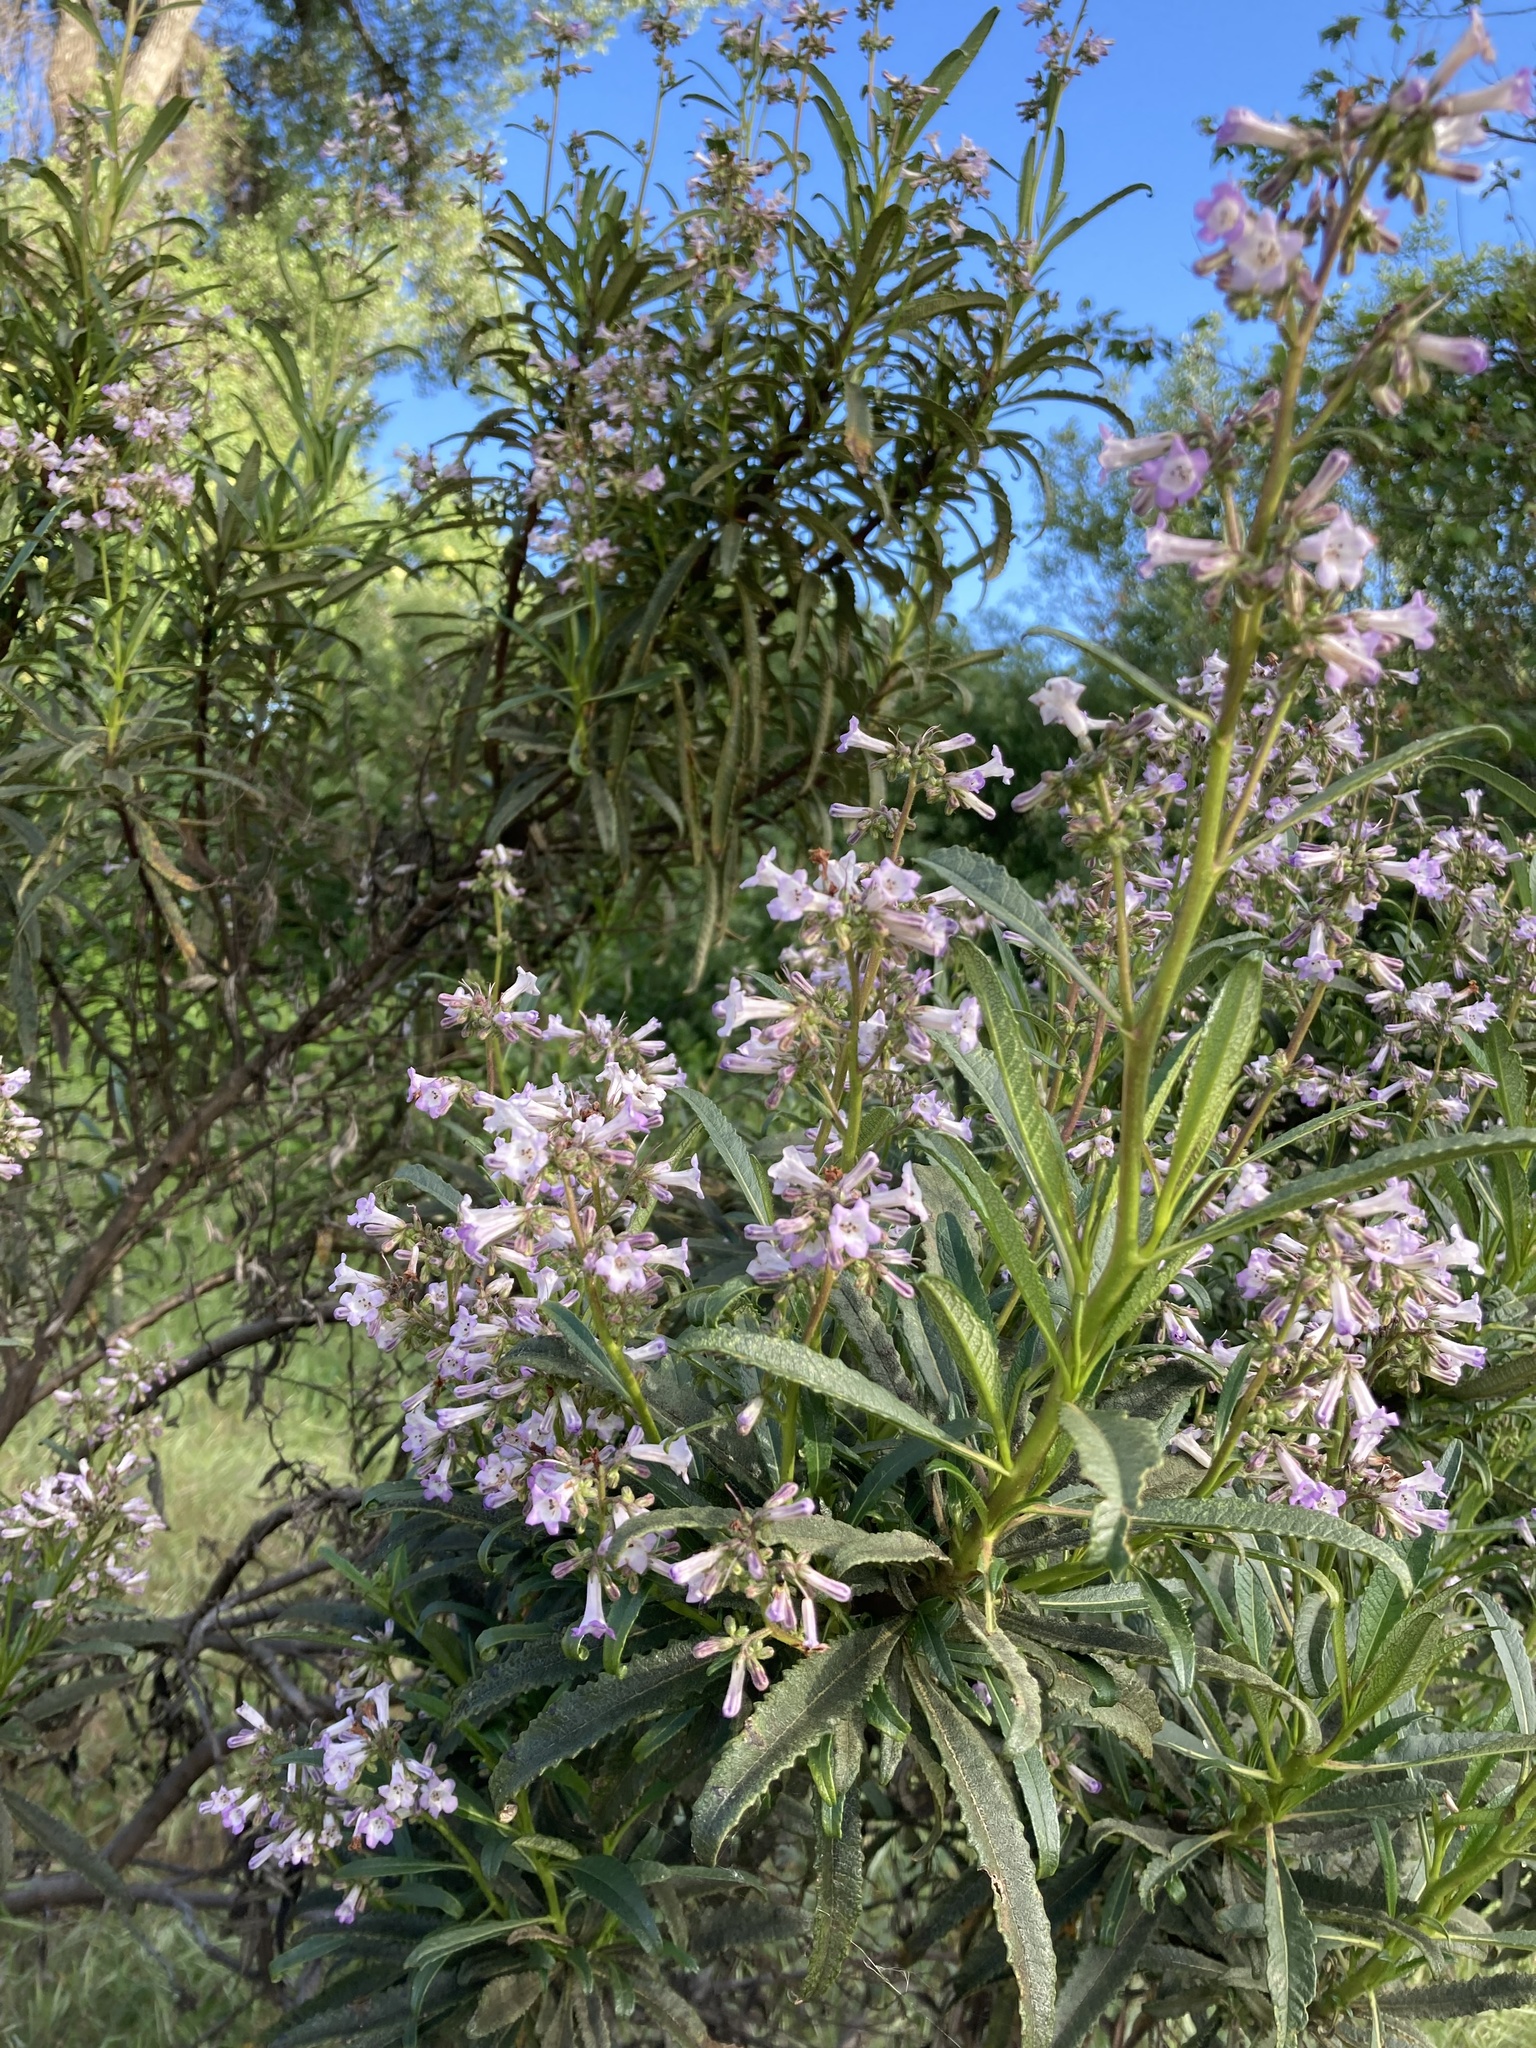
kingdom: Plantae
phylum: Tracheophyta
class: Magnoliopsida
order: Boraginales
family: Namaceae
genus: Eriodictyon
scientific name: Eriodictyon californicum
